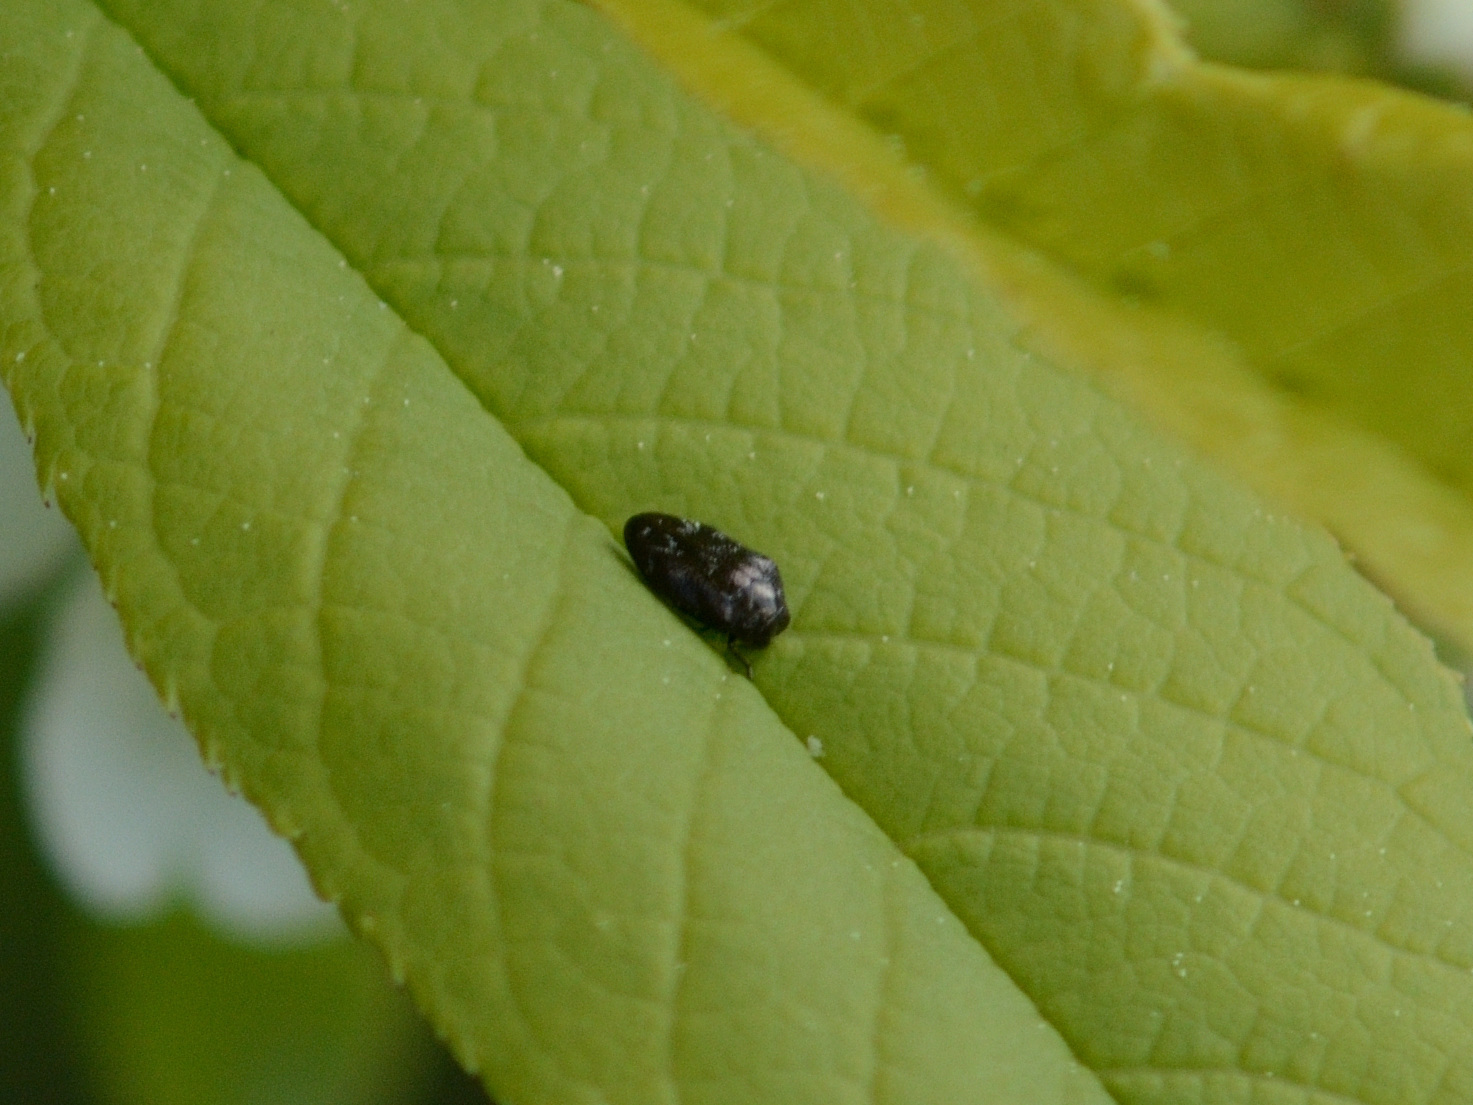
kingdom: Animalia
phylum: Arthropoda
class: Insecta
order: Coleoptera
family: Buprestidae
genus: Trachys
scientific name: Trachys minutus
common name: Metallic wood-boring beetle
